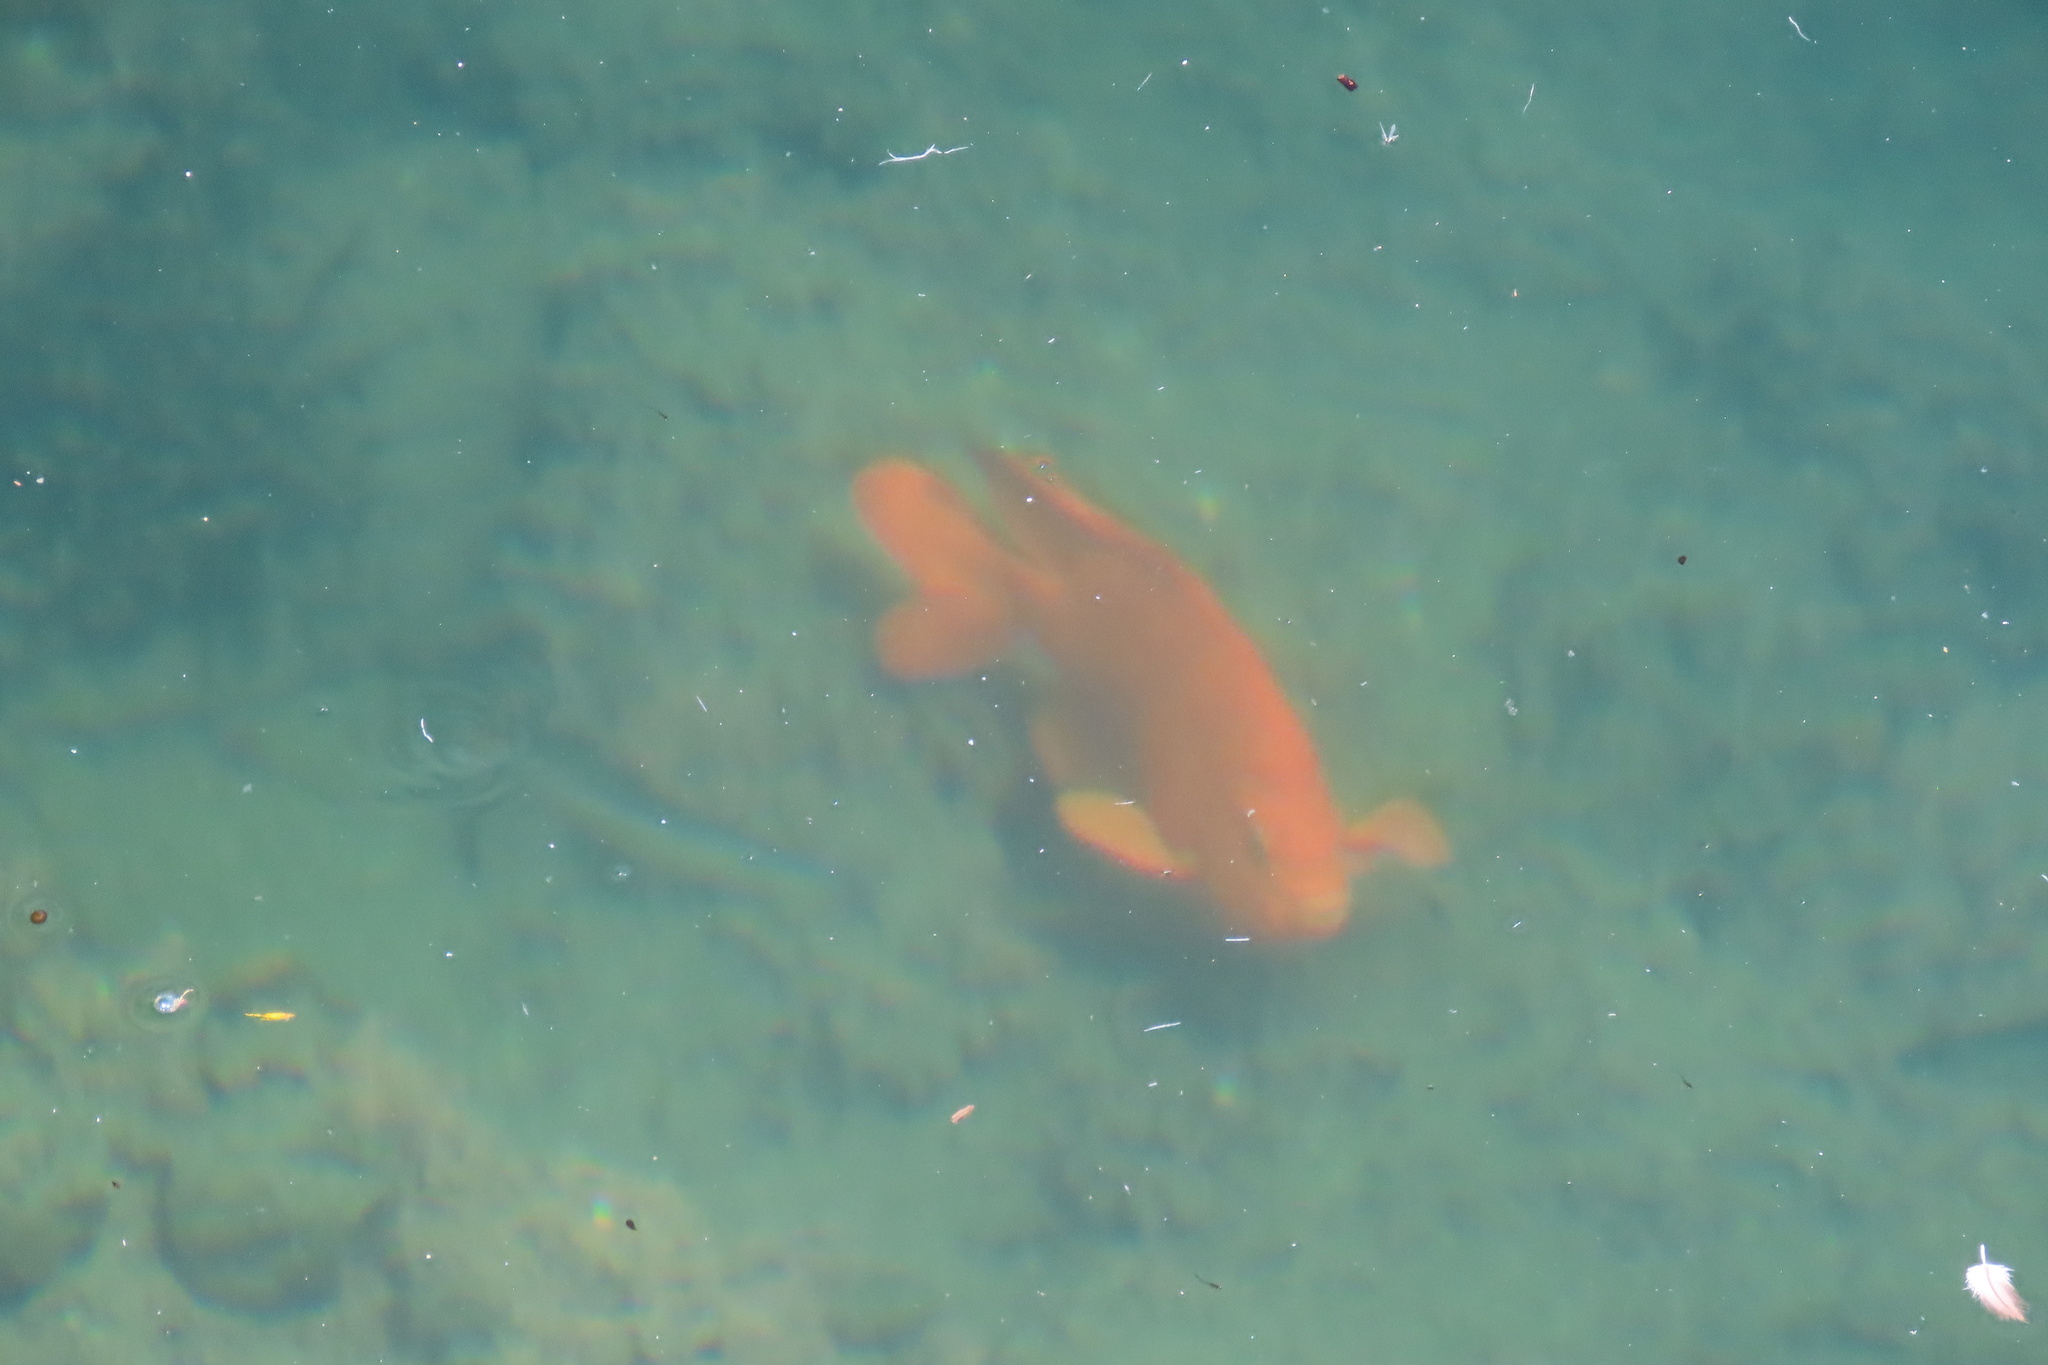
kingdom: Animalia
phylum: Chordata
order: Perciformes
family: Pomacentridae
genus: Hypsypops
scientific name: Hypsypops rubicundus
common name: Garibaldi
